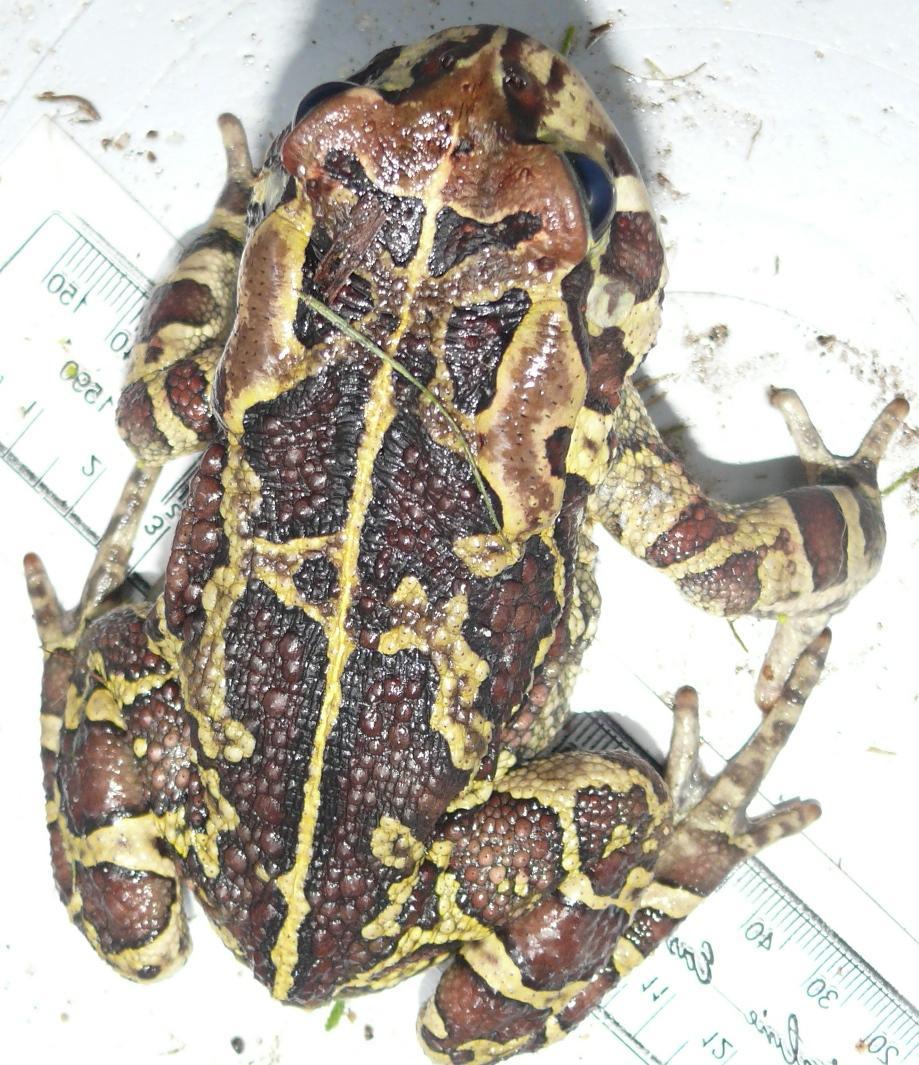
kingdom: Animalia
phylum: Chordata
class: Amphibia
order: Anura
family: Bufonidae
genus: Sclerophrys
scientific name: Sclerophrys pantherina
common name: Panther toad
